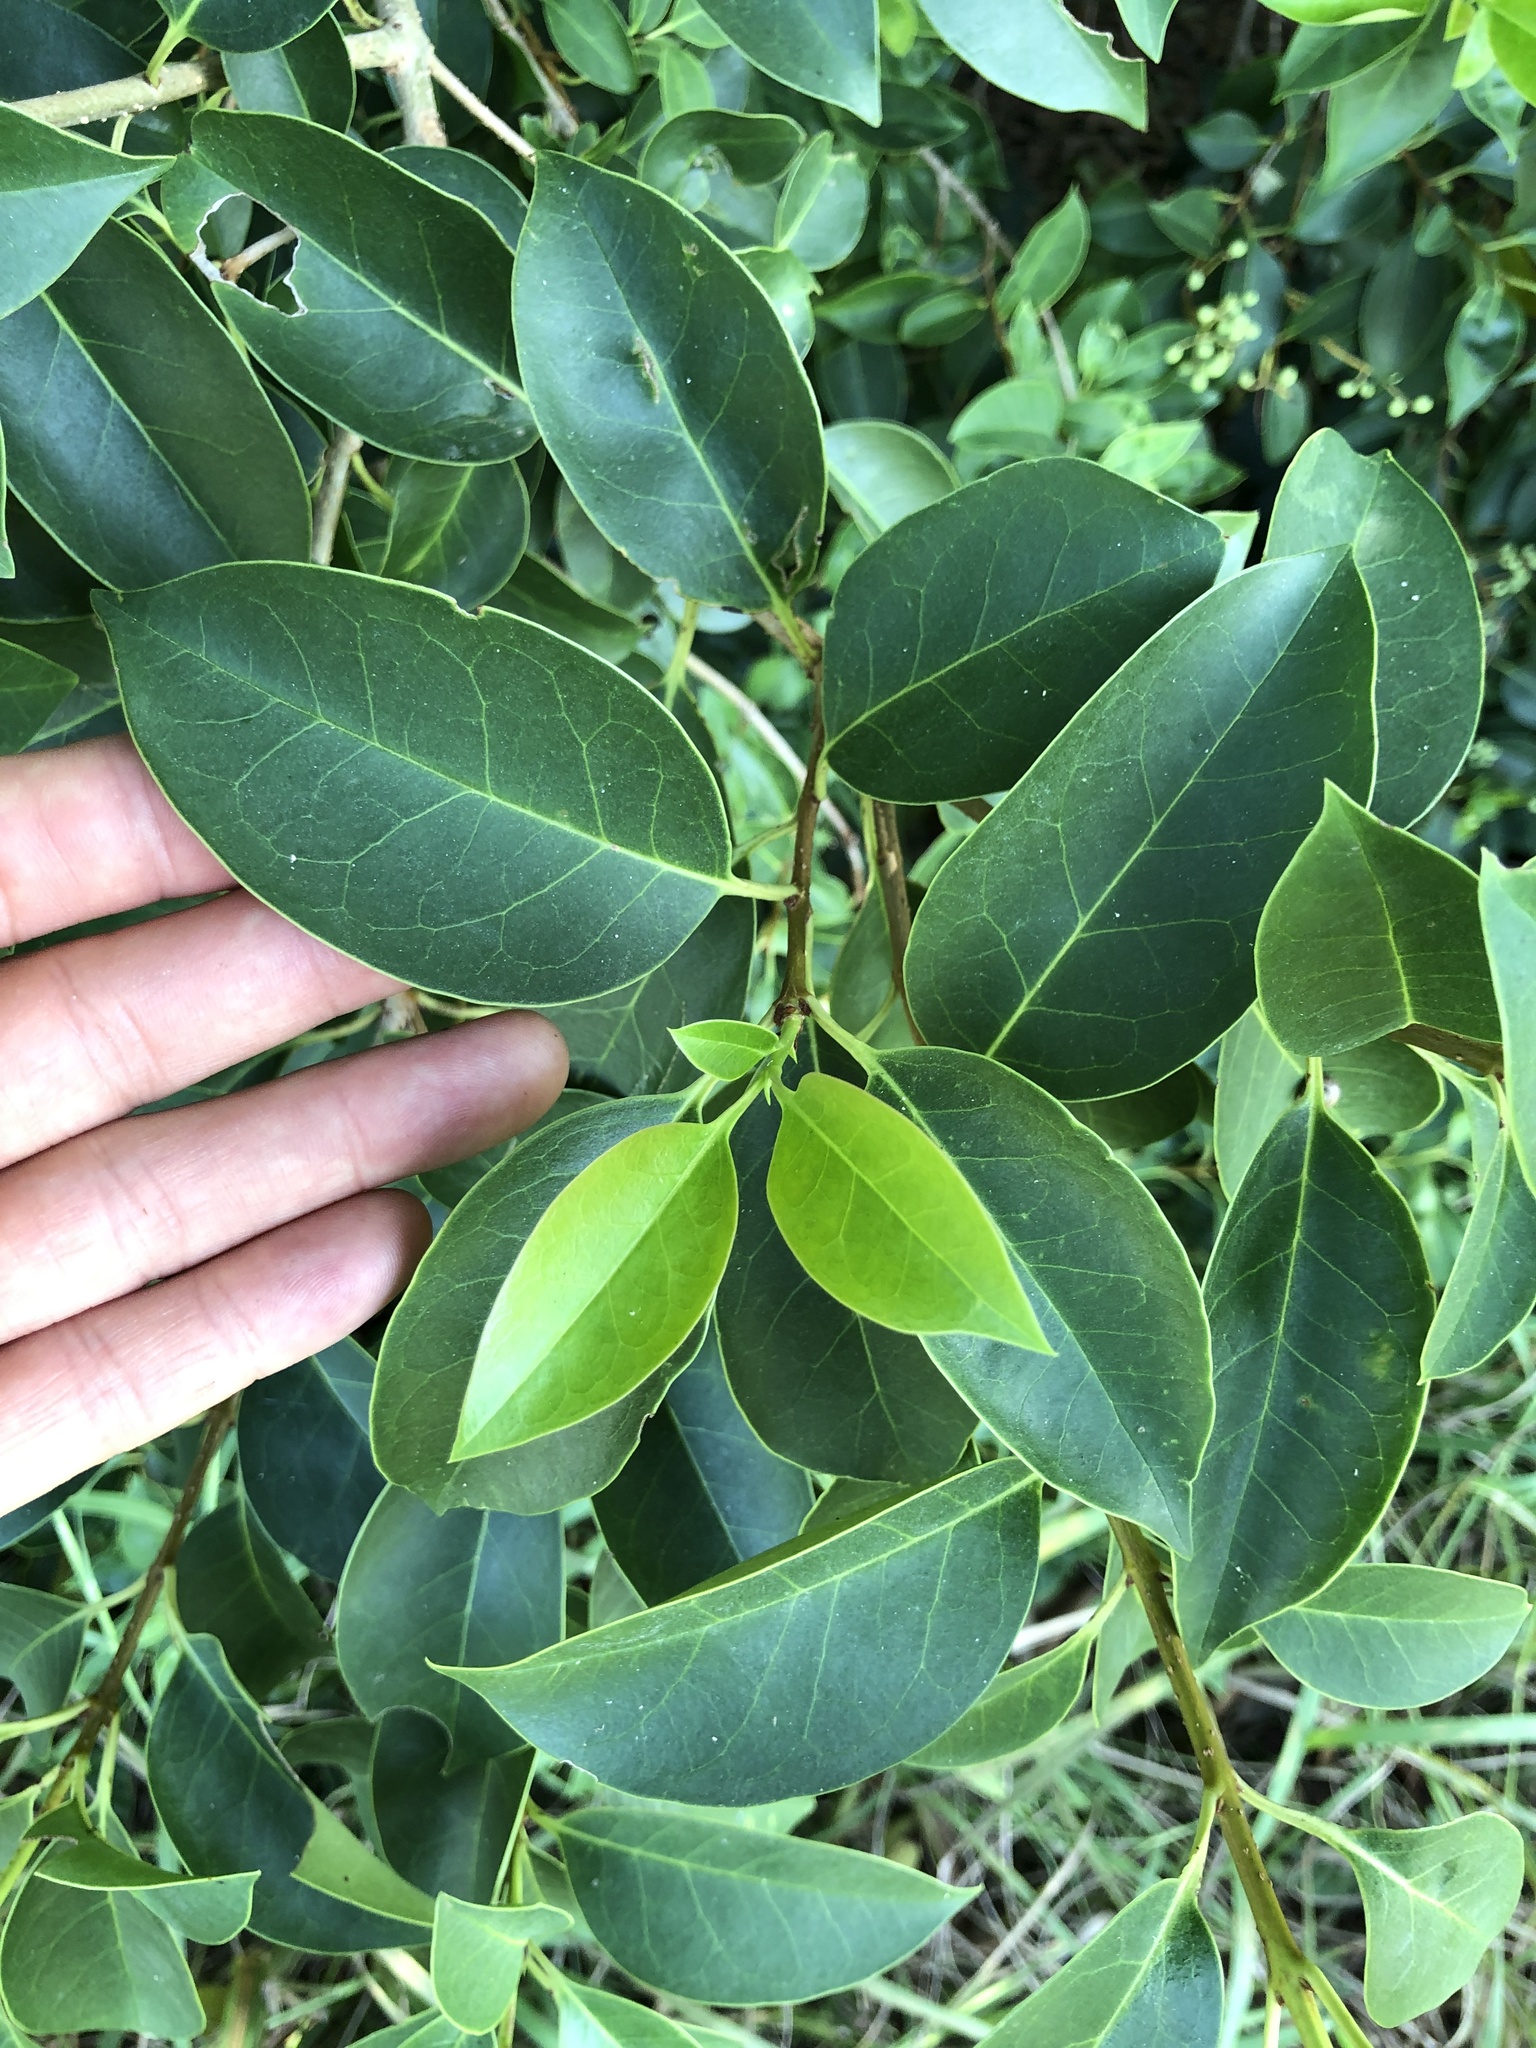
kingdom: Plantae
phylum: Tracheophyta
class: Magnoliopsida
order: Lamiales
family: Oleaceae
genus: Ligustrum
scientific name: Ligustrum lucidum
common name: Glossy privet
